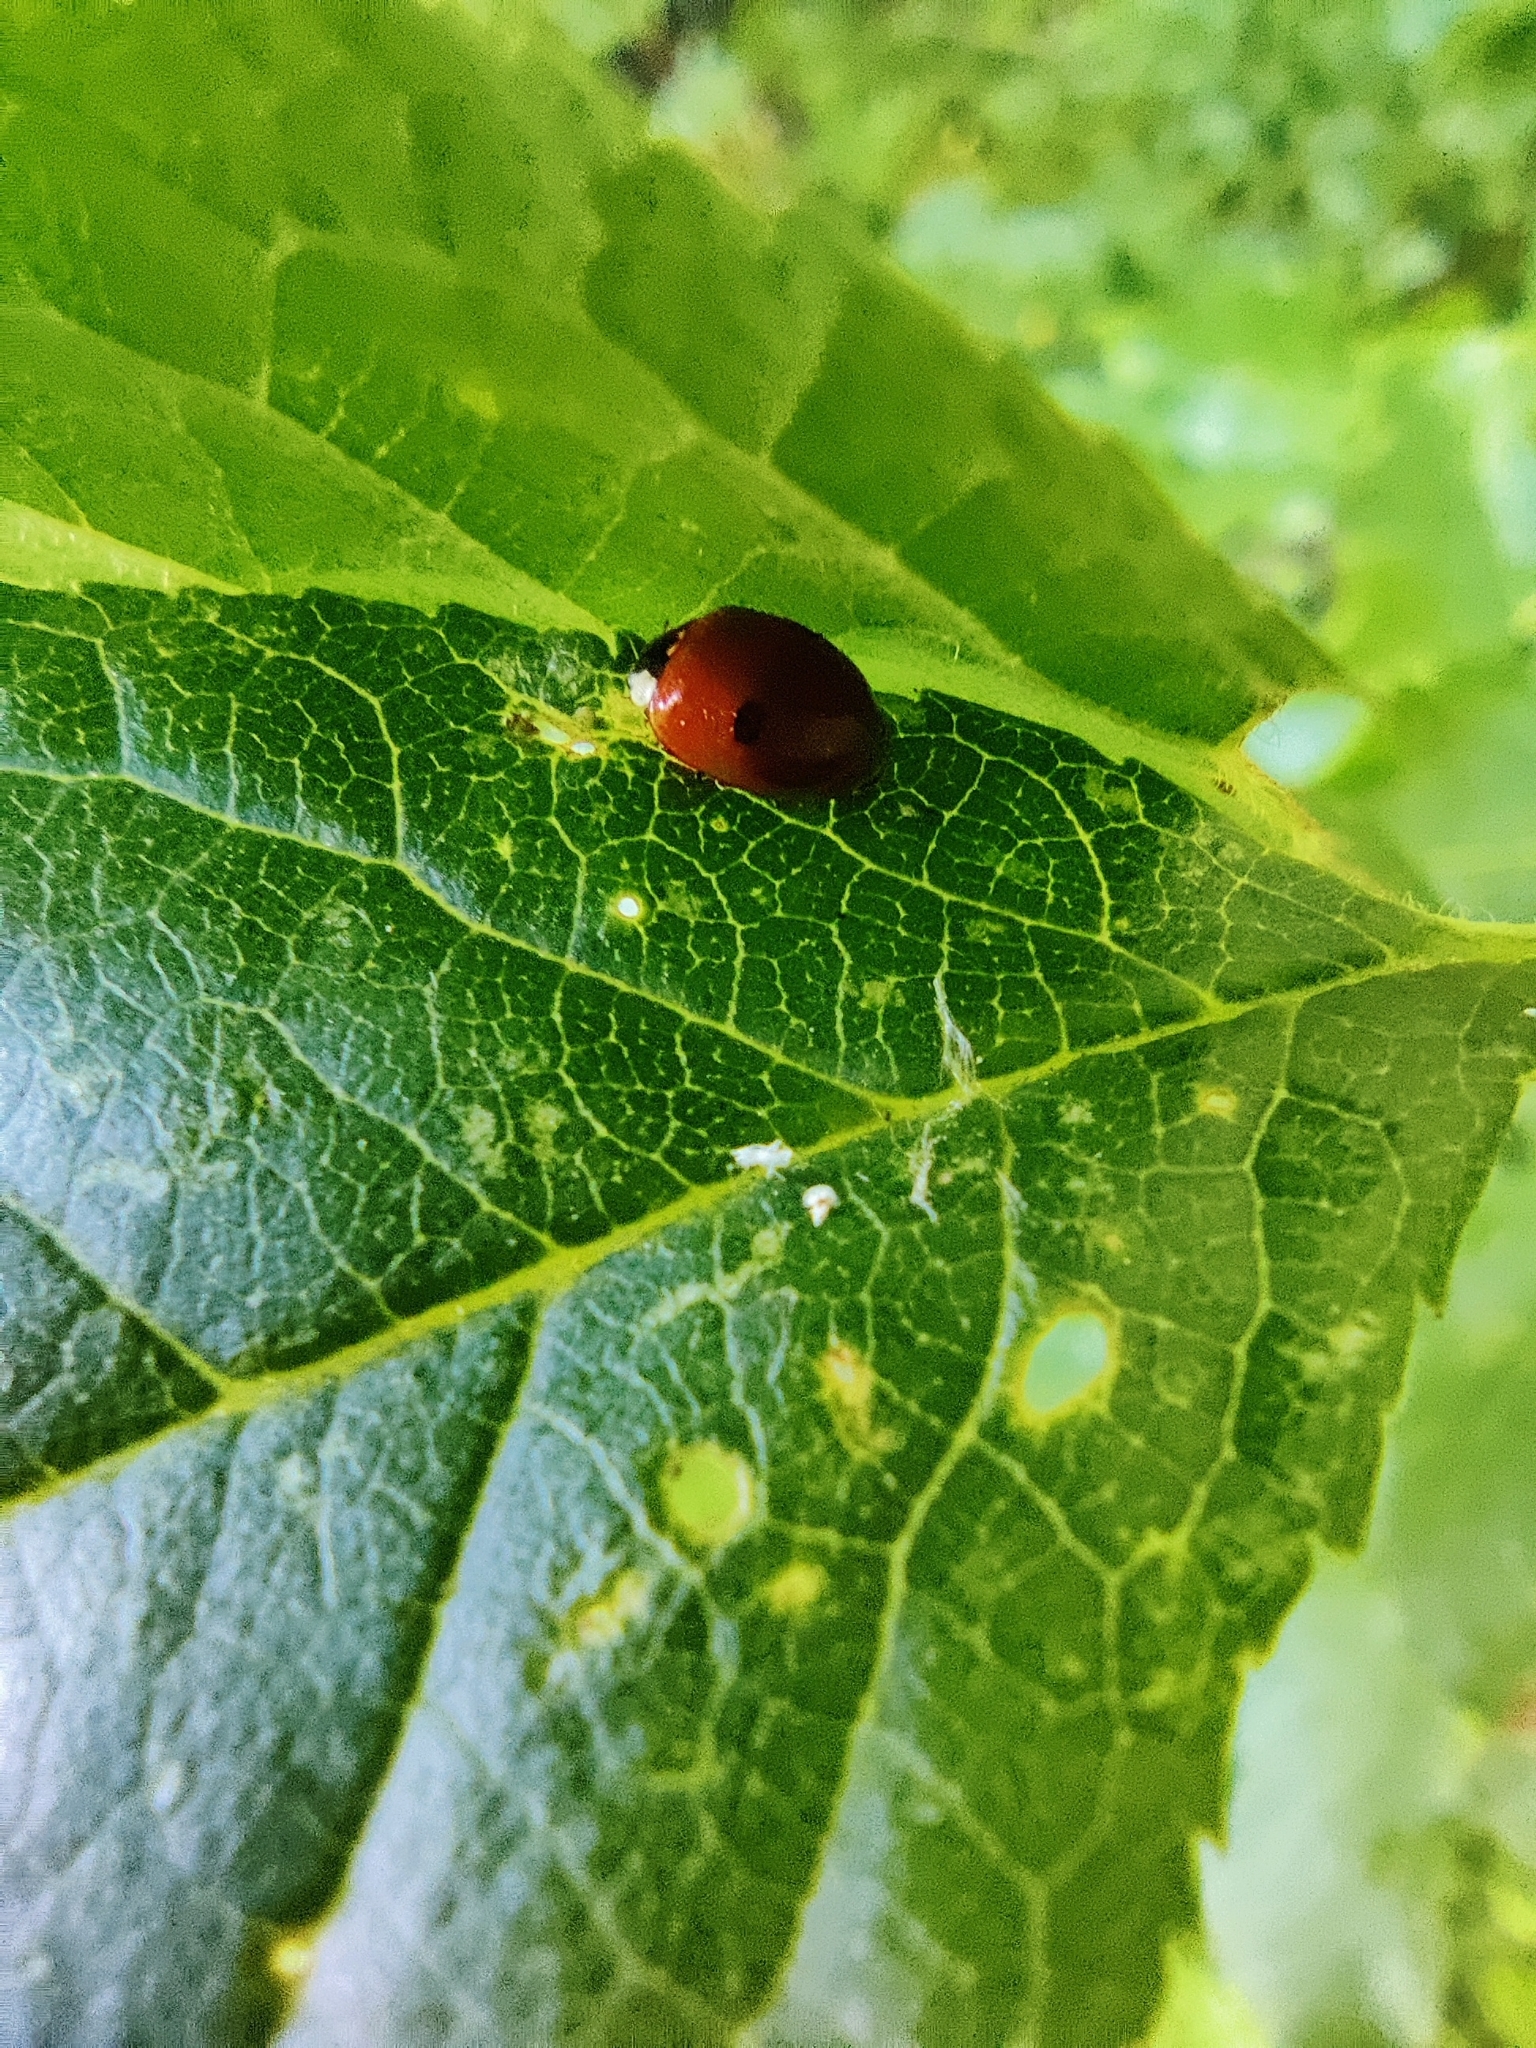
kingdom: Animalia
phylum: Arthropoda
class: Insecta
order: Coleoptera
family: Coccinellidae
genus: Adalia
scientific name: Adalia bipunctata
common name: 2-spot ladybird
